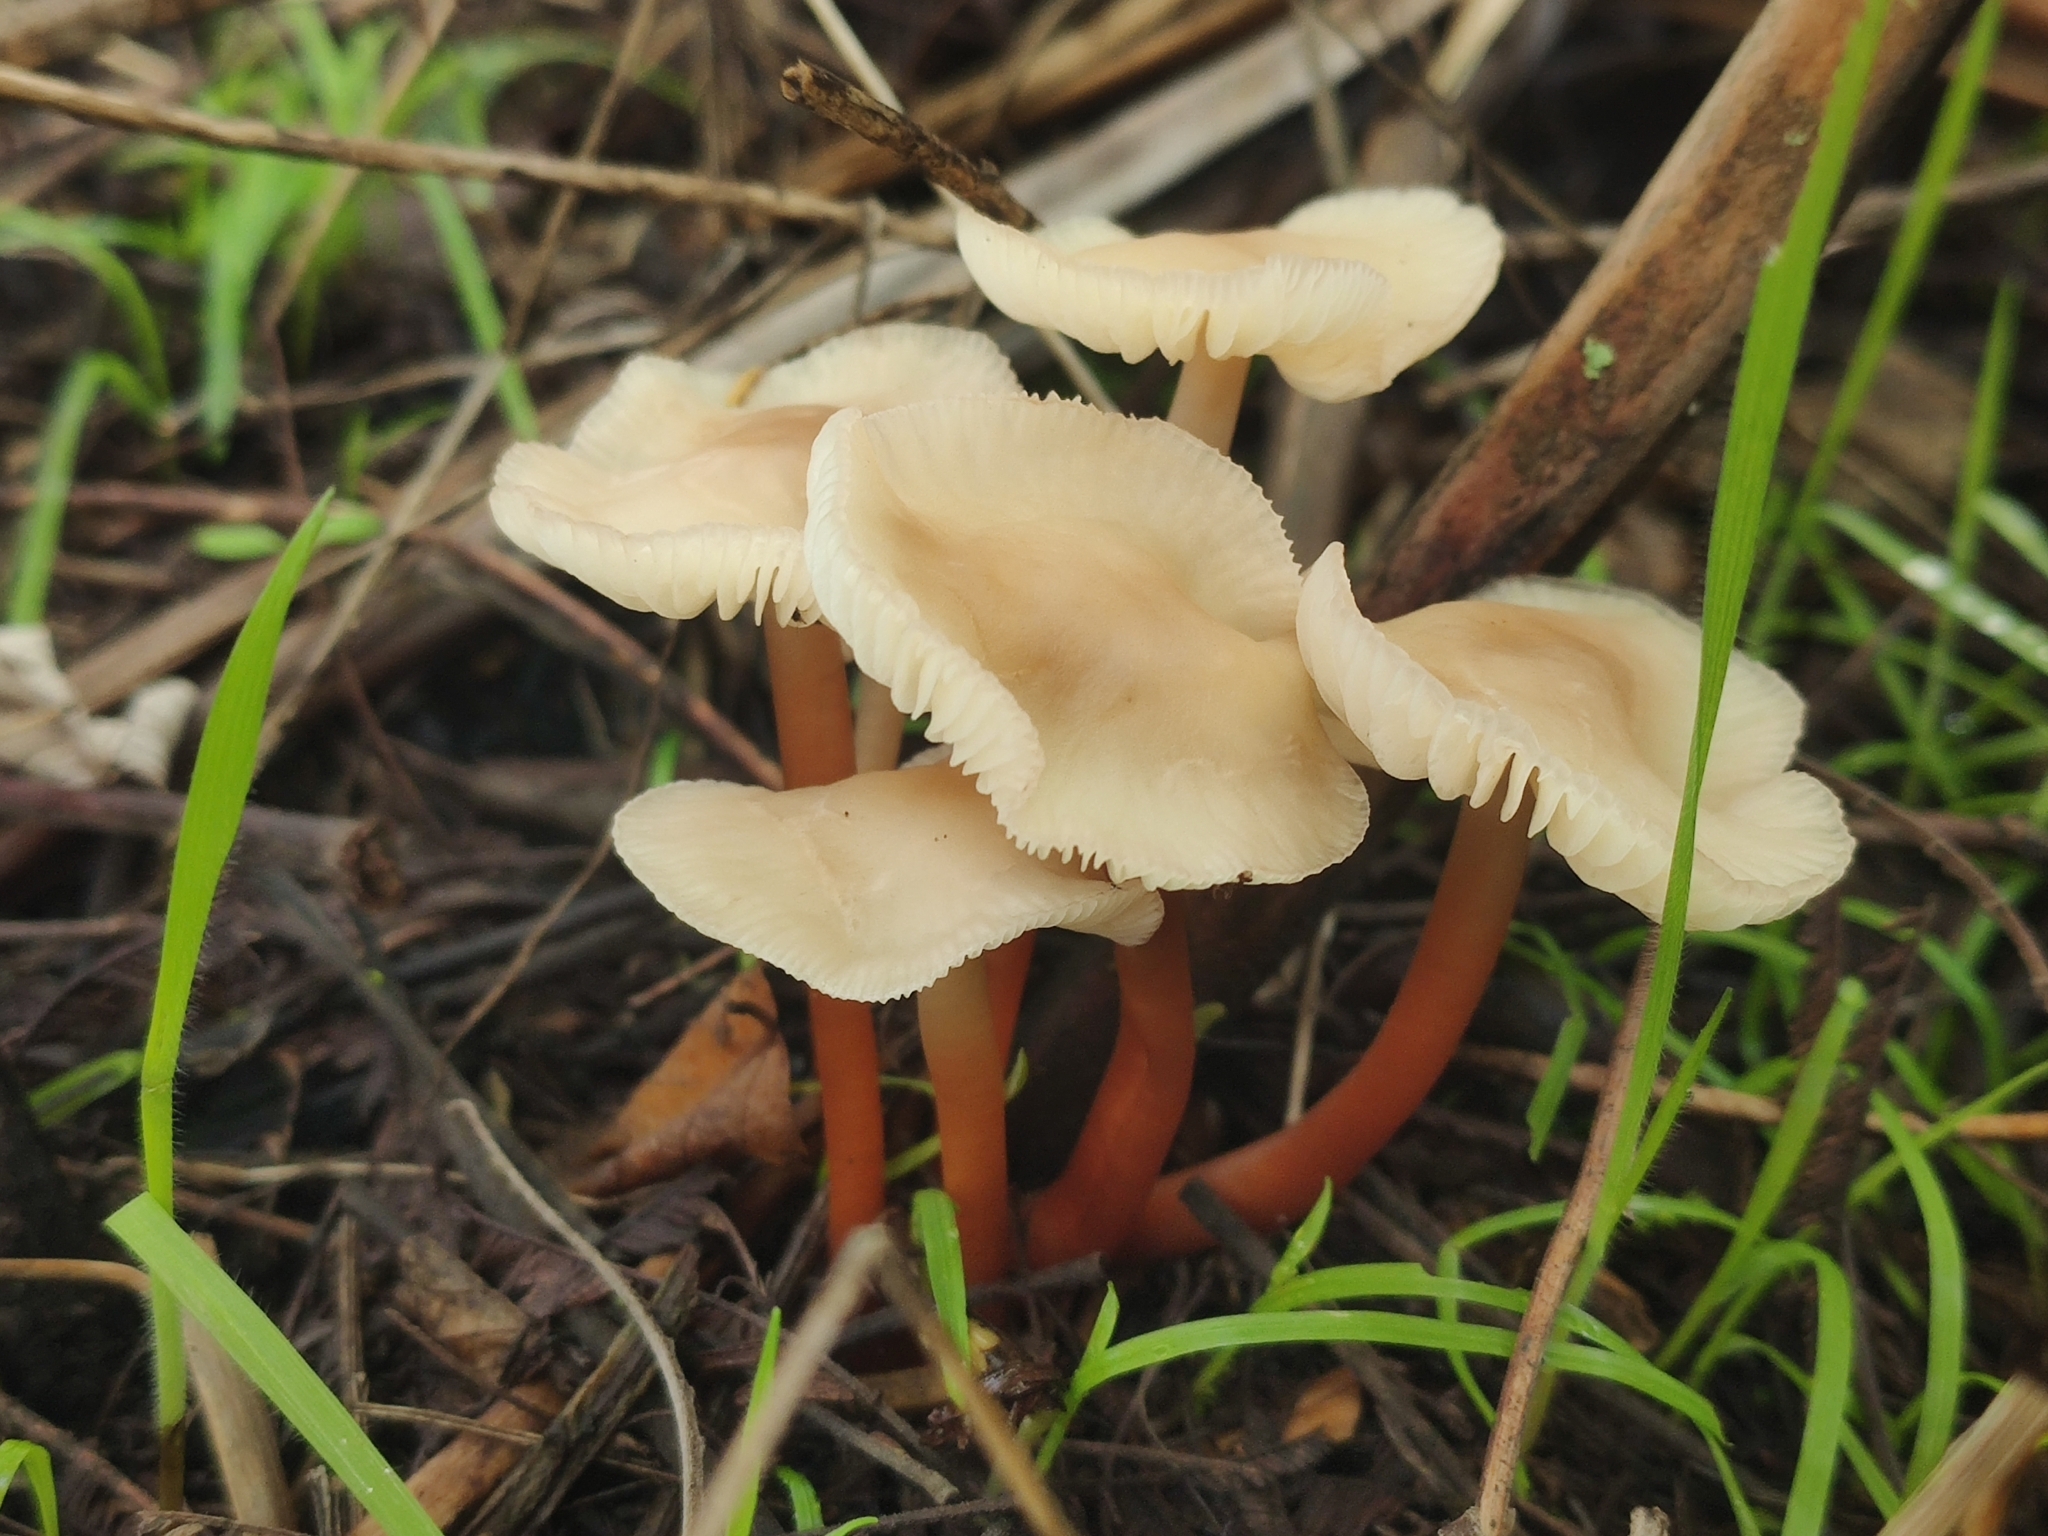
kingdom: Fungi
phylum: Basidiomycota
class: Agaricomycetes
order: Agaricales
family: Omphalotaceae
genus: Gymnopus
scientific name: Gymnopus erythropus
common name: Redleg toughshank
